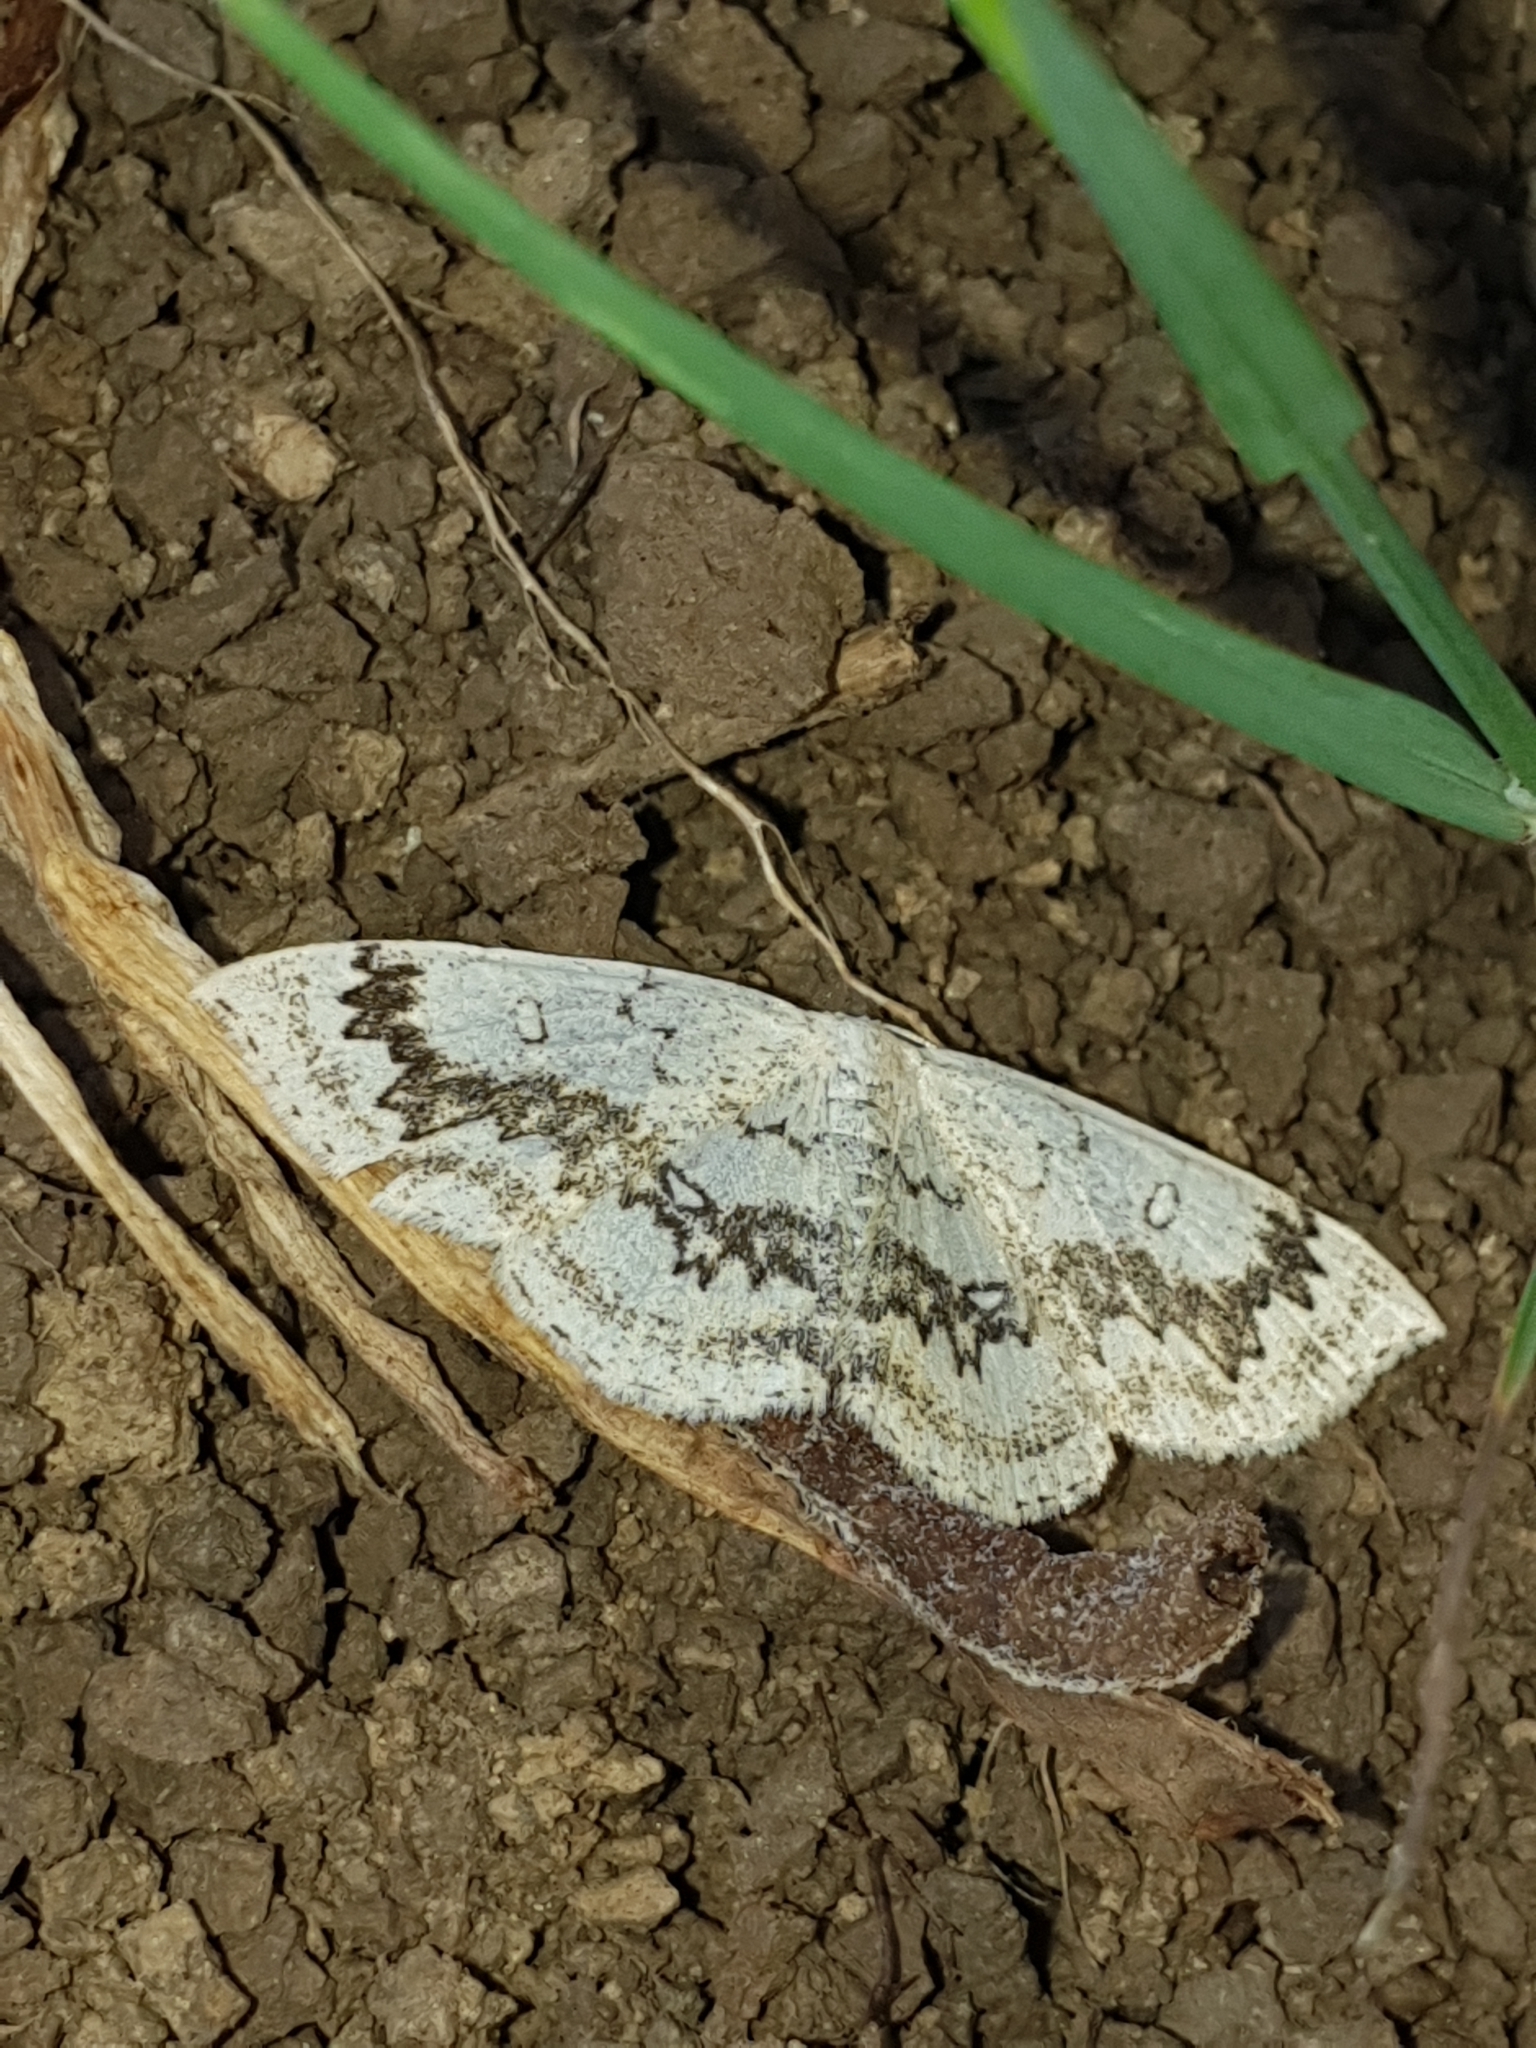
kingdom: Animalia
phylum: Arthropoda
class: Insecta
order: Lepidoptera
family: Geometridae
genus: Cyclophora
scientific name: Cyclophora annularia
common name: Mocha
